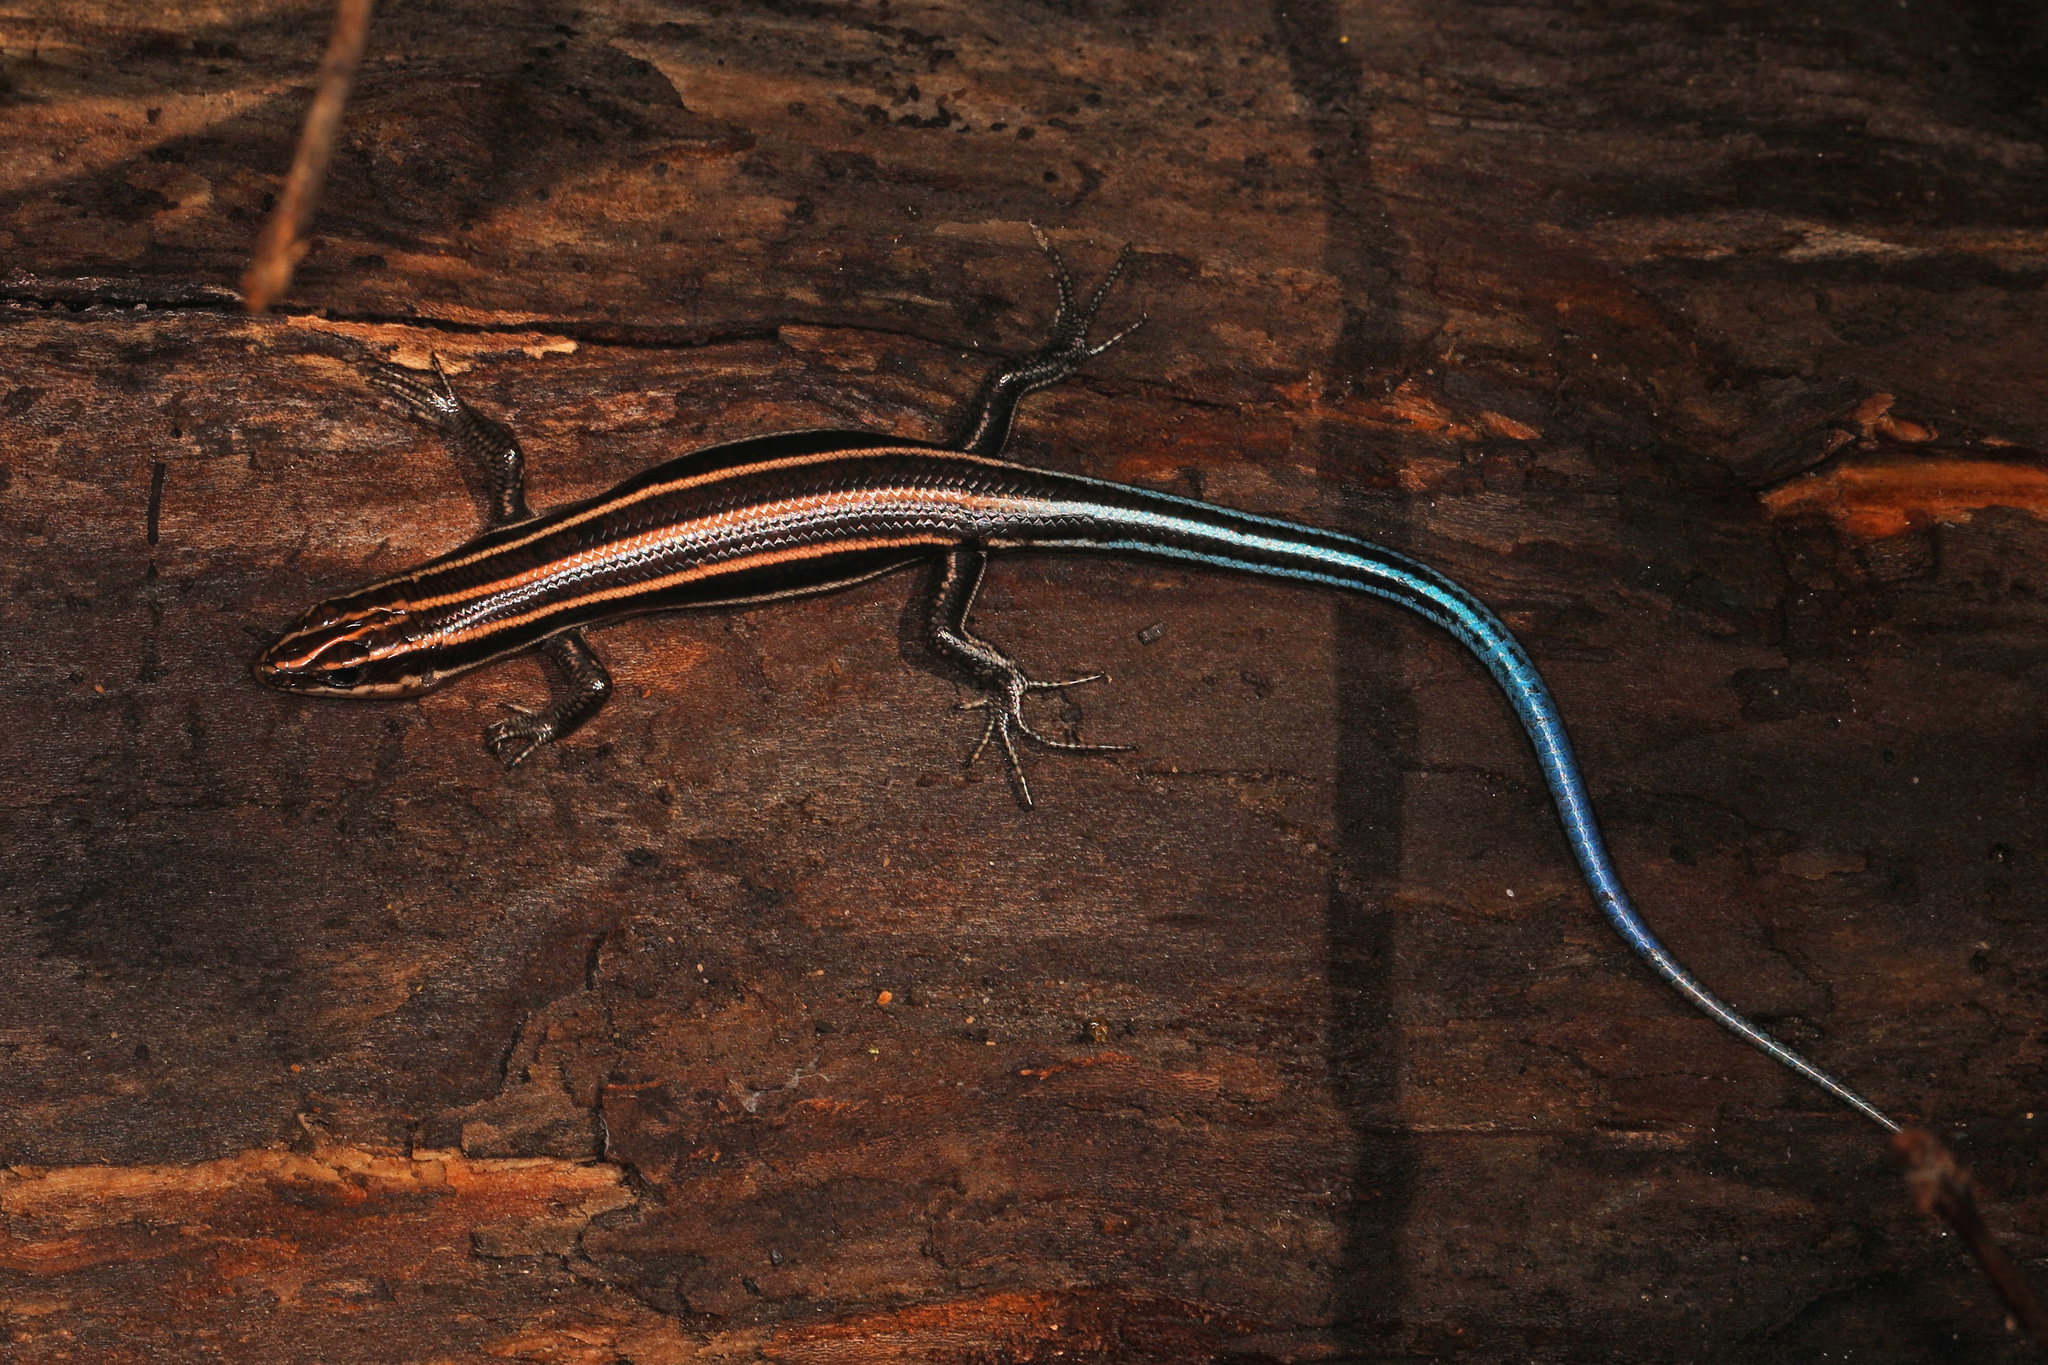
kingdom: Animalia
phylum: Chordata
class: Squamata
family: Scincidae
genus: Plestiodon
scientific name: Plestiodon fasciatus
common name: Five-lined skink
